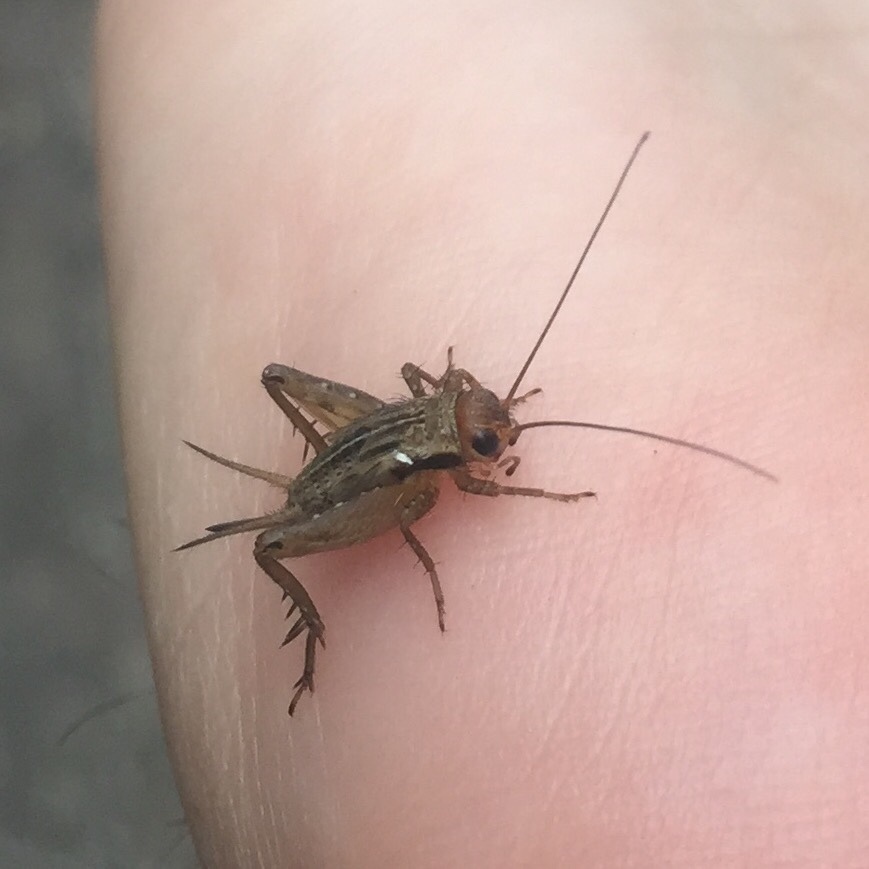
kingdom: Animalia
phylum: Arthropoda
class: Insecta
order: Orthoptera
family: Trigonidiidae
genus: Allonemobius
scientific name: Allonemobius fasciatus
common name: Striped ground cricket
